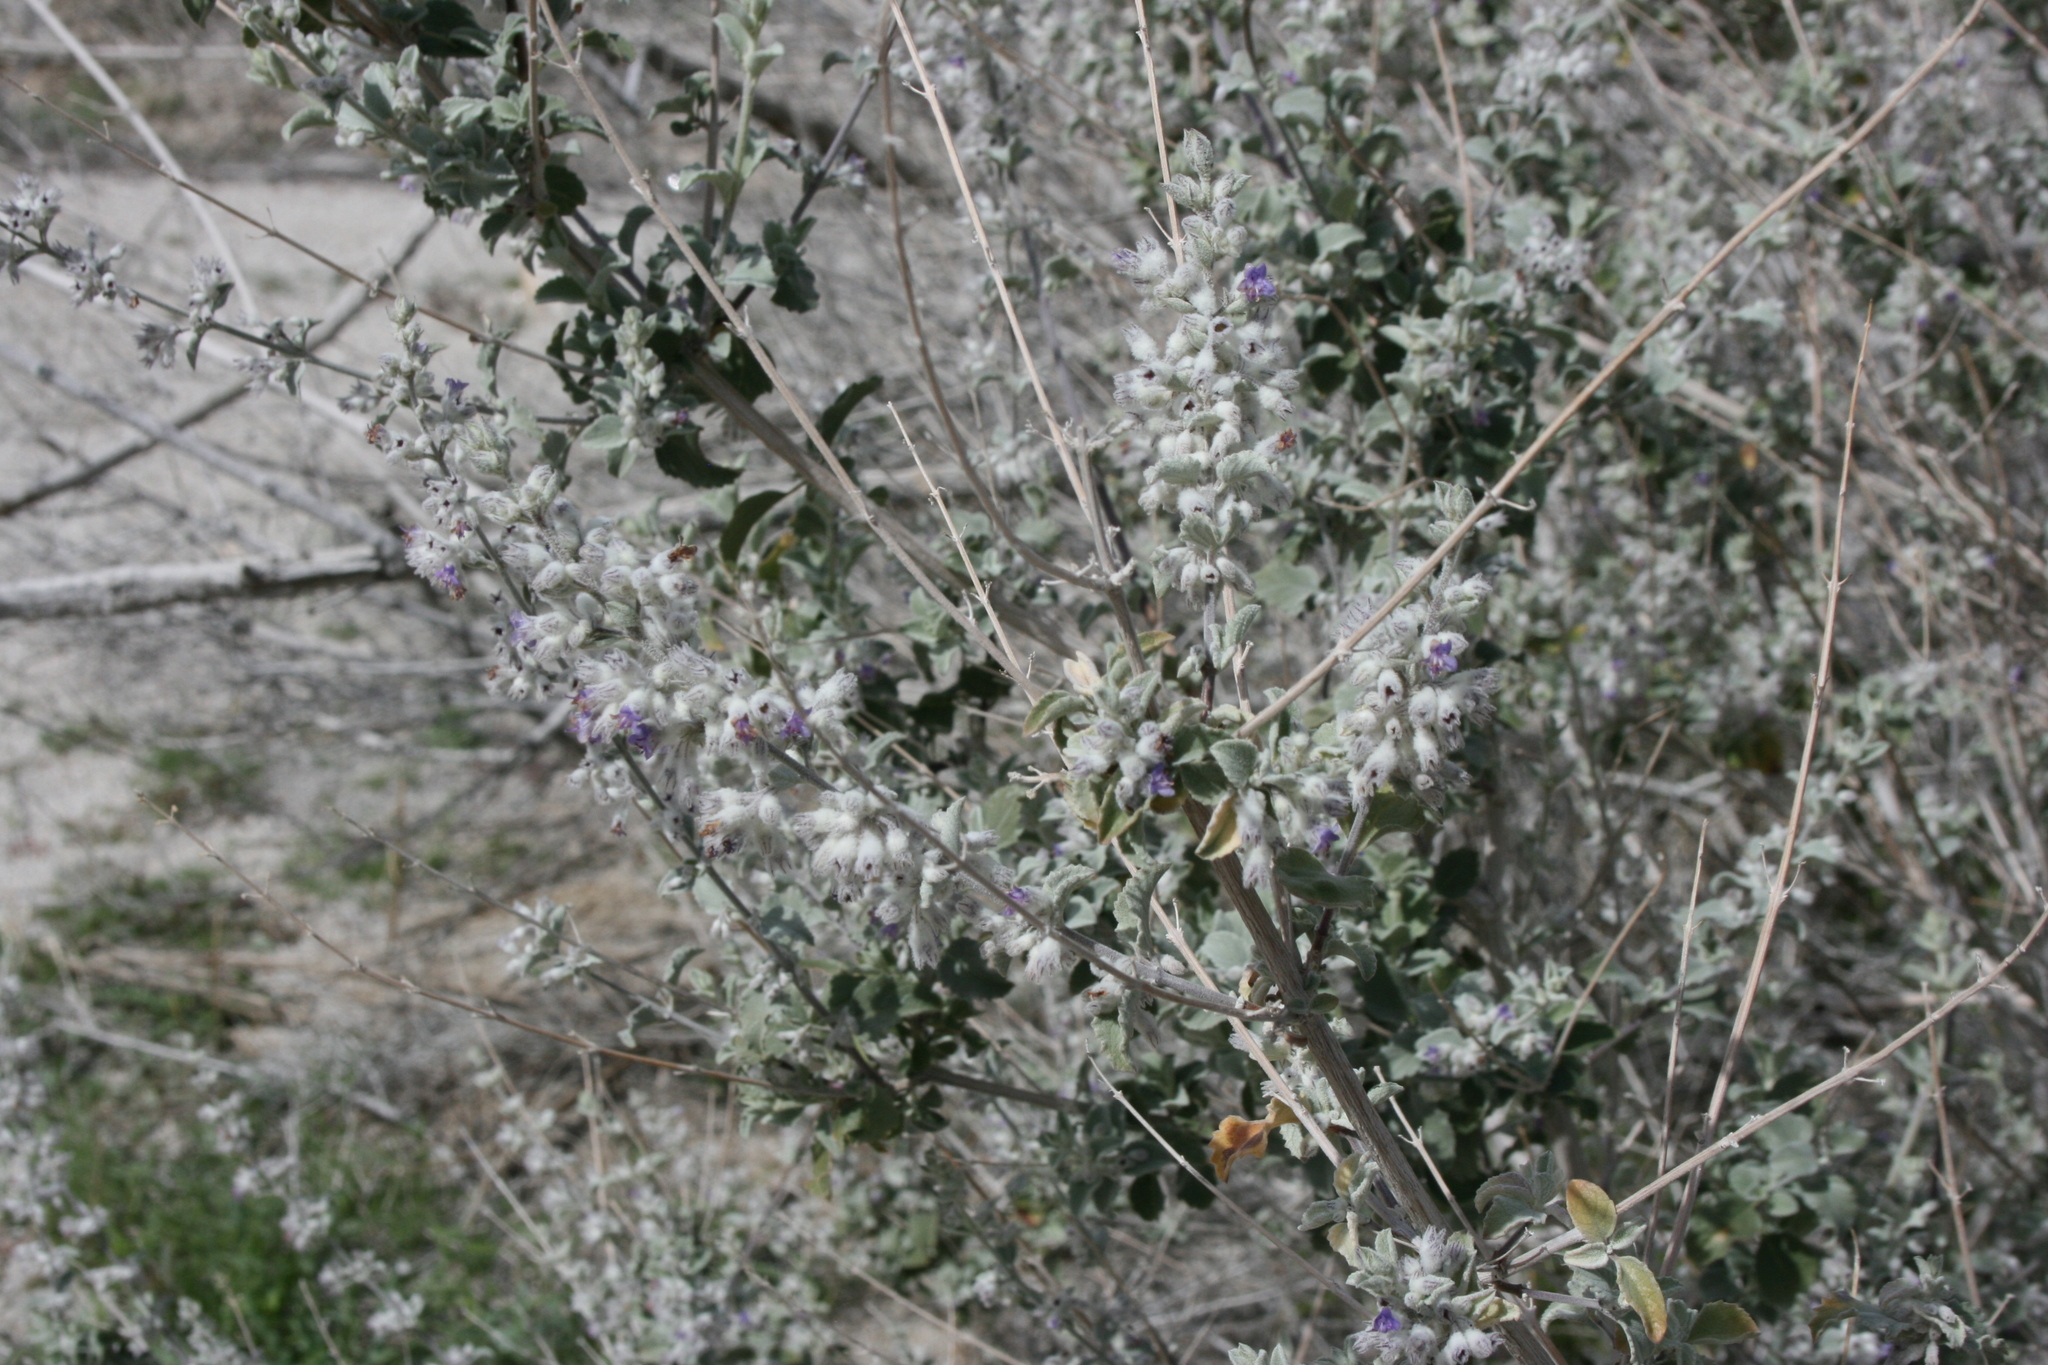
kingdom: Plantae
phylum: Tracheophyta
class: Magnoliopsida
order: Lamiales
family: Lamiaceae
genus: Condea
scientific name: Condea emoryi
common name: Chia
